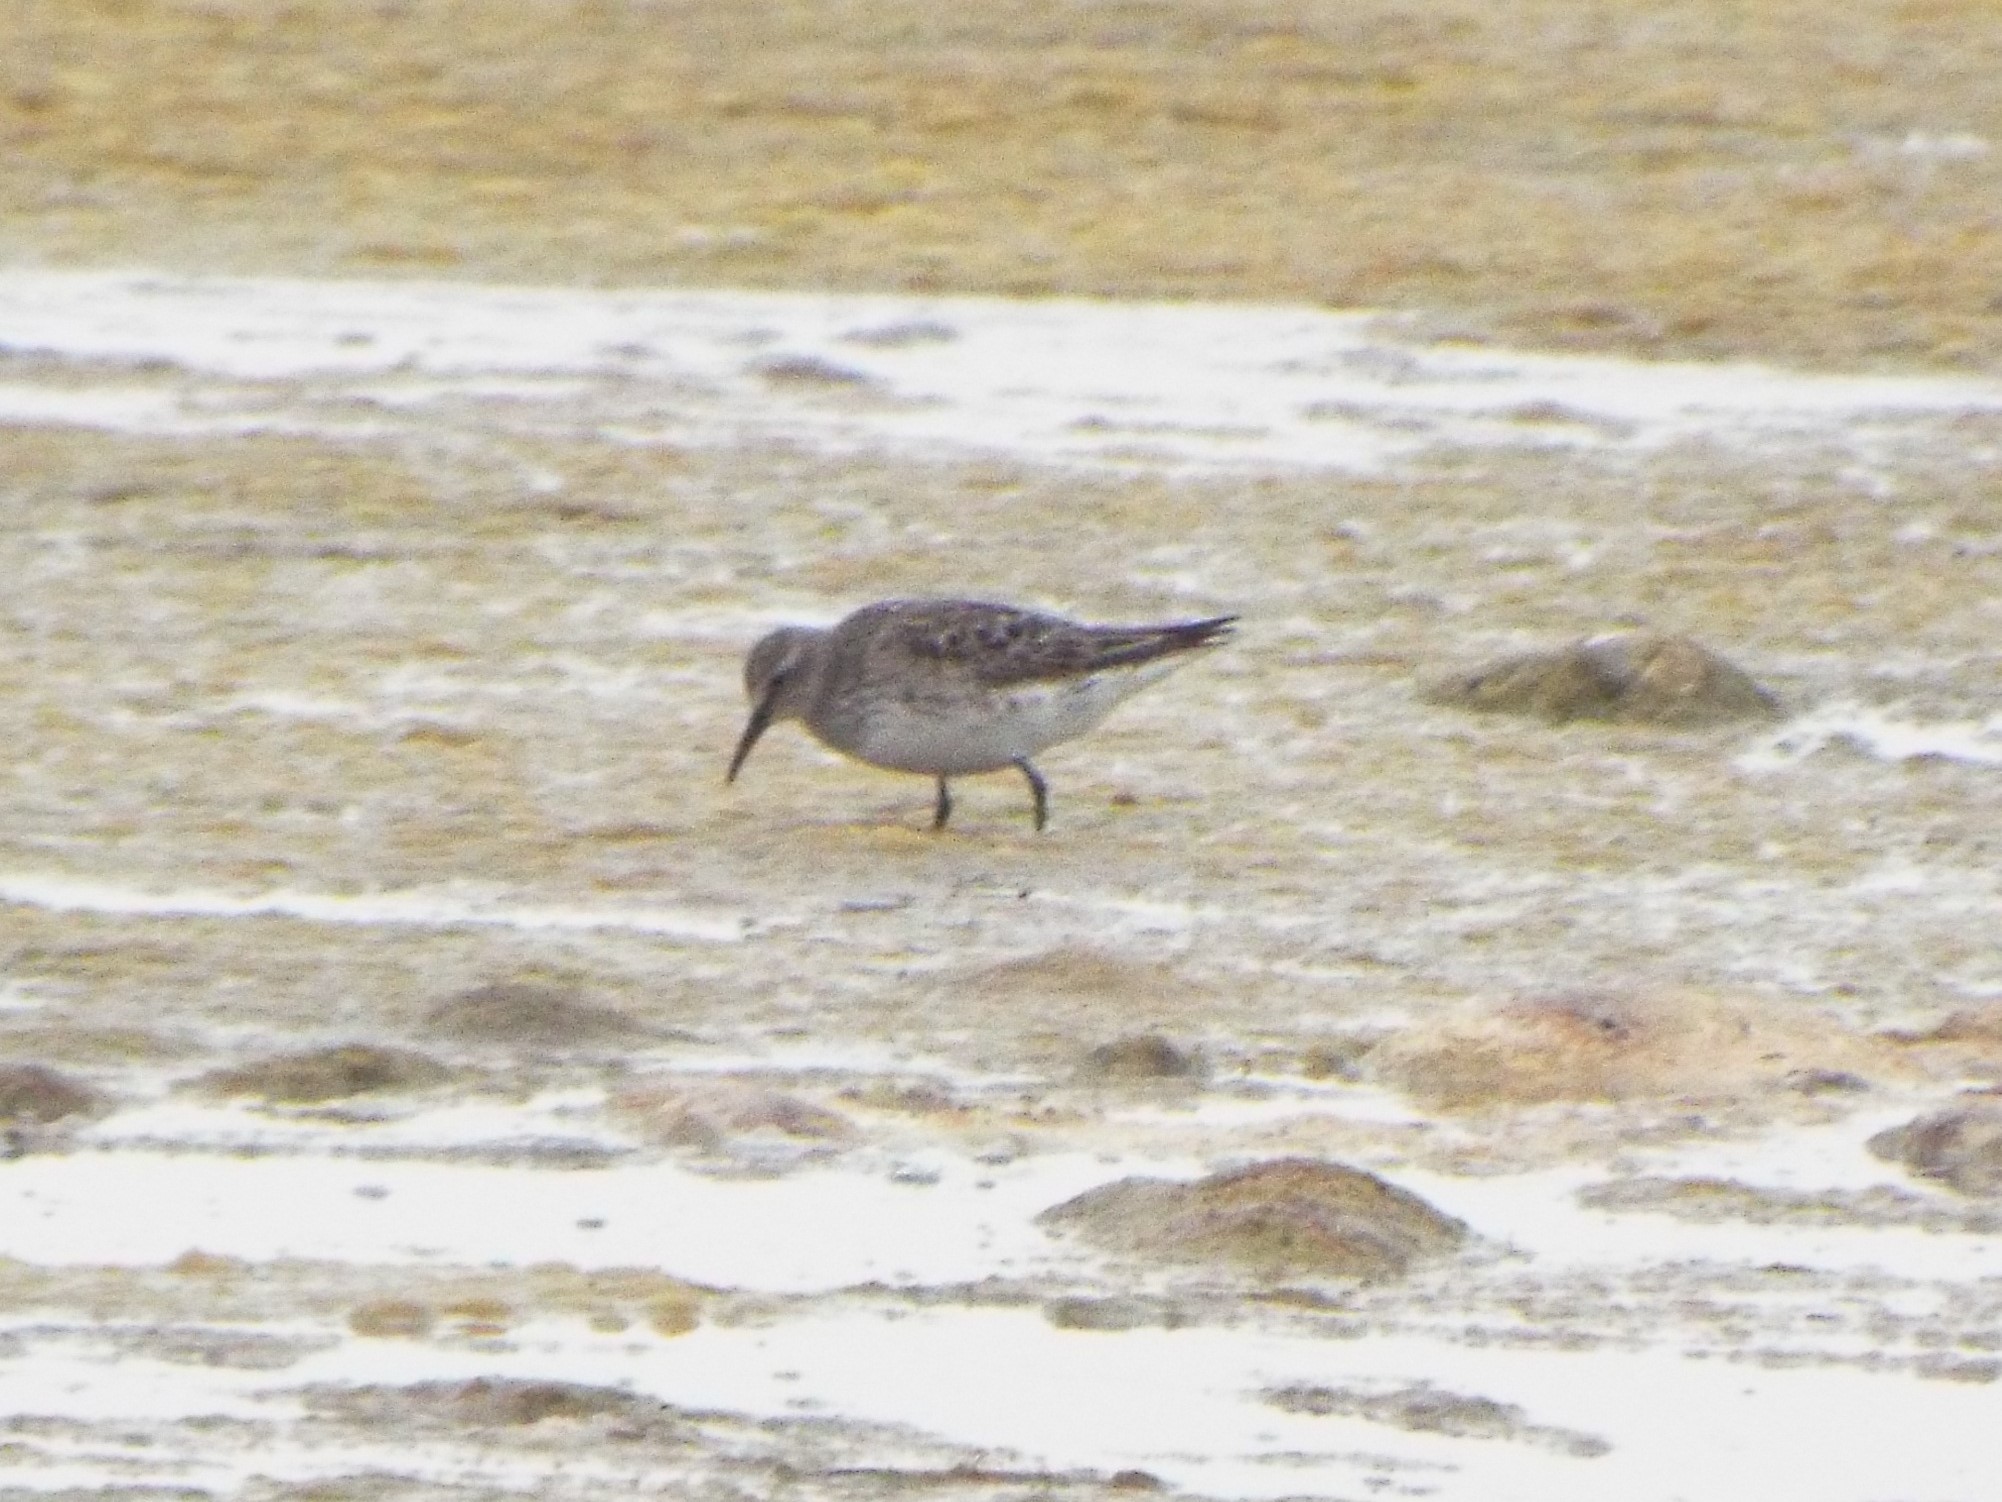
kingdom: Animalia
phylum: Chordata
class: Aves
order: Charadriiformes
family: Scolopacidae
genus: Calidris
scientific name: Calidris fuscicollis
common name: White-rumped sandpiper
